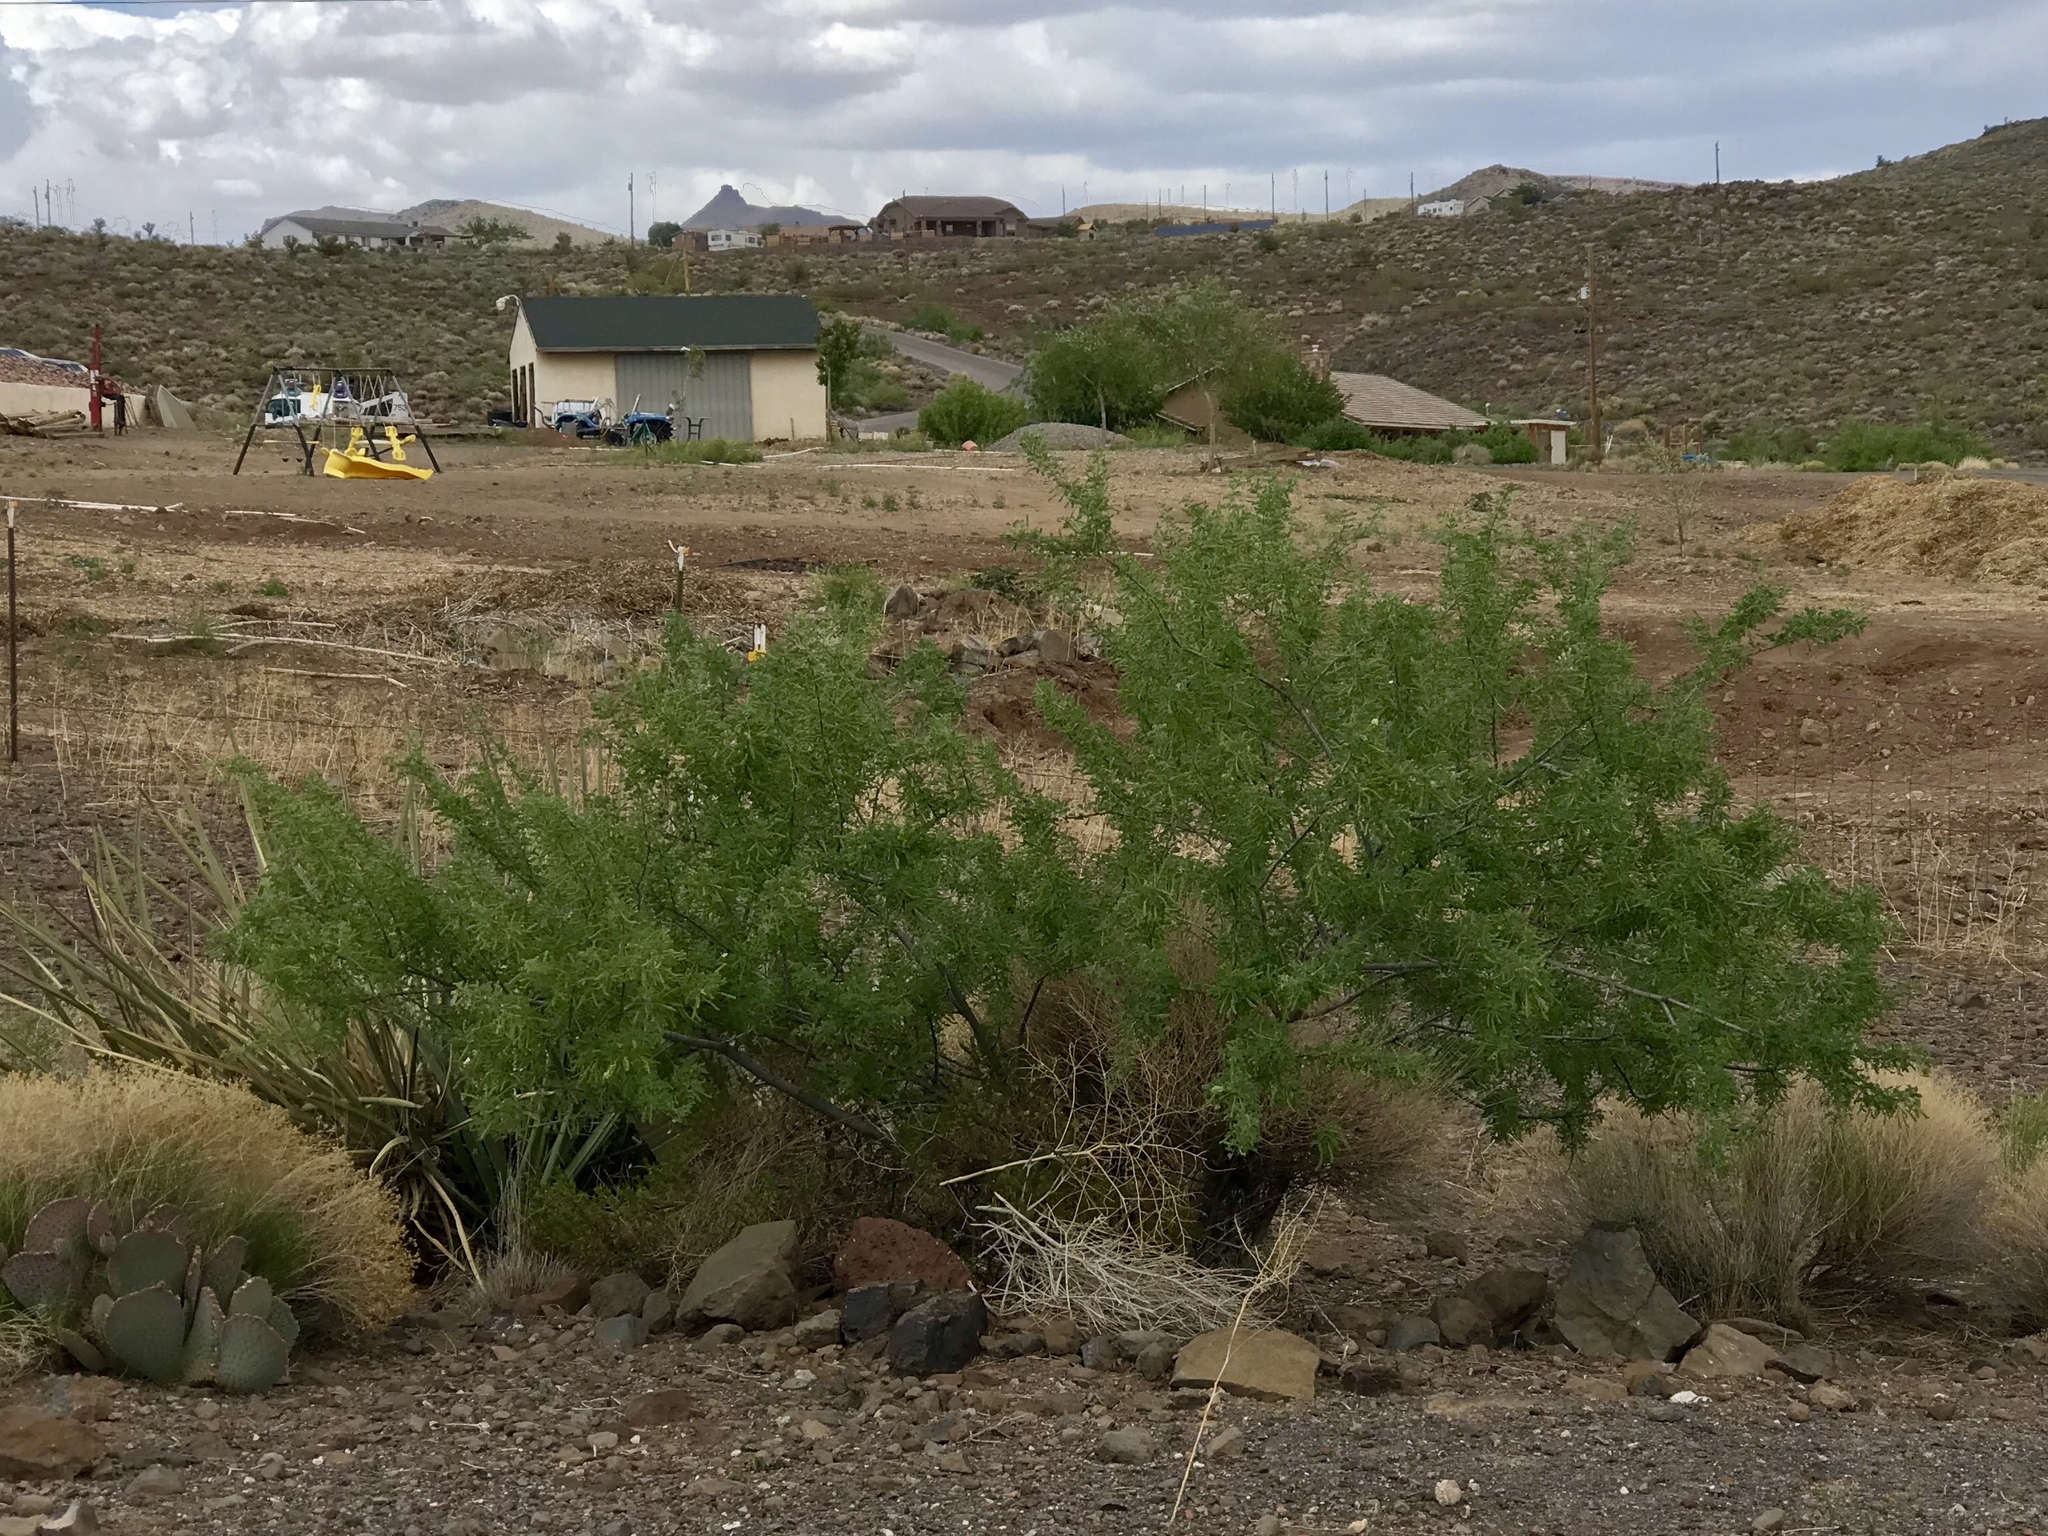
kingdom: Plantae
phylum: Tracheophyta
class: Magnoliopsida
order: Fabales
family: Fabaceae
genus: Senegalia
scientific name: Senegalia greggii
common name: Texas-mimosa
